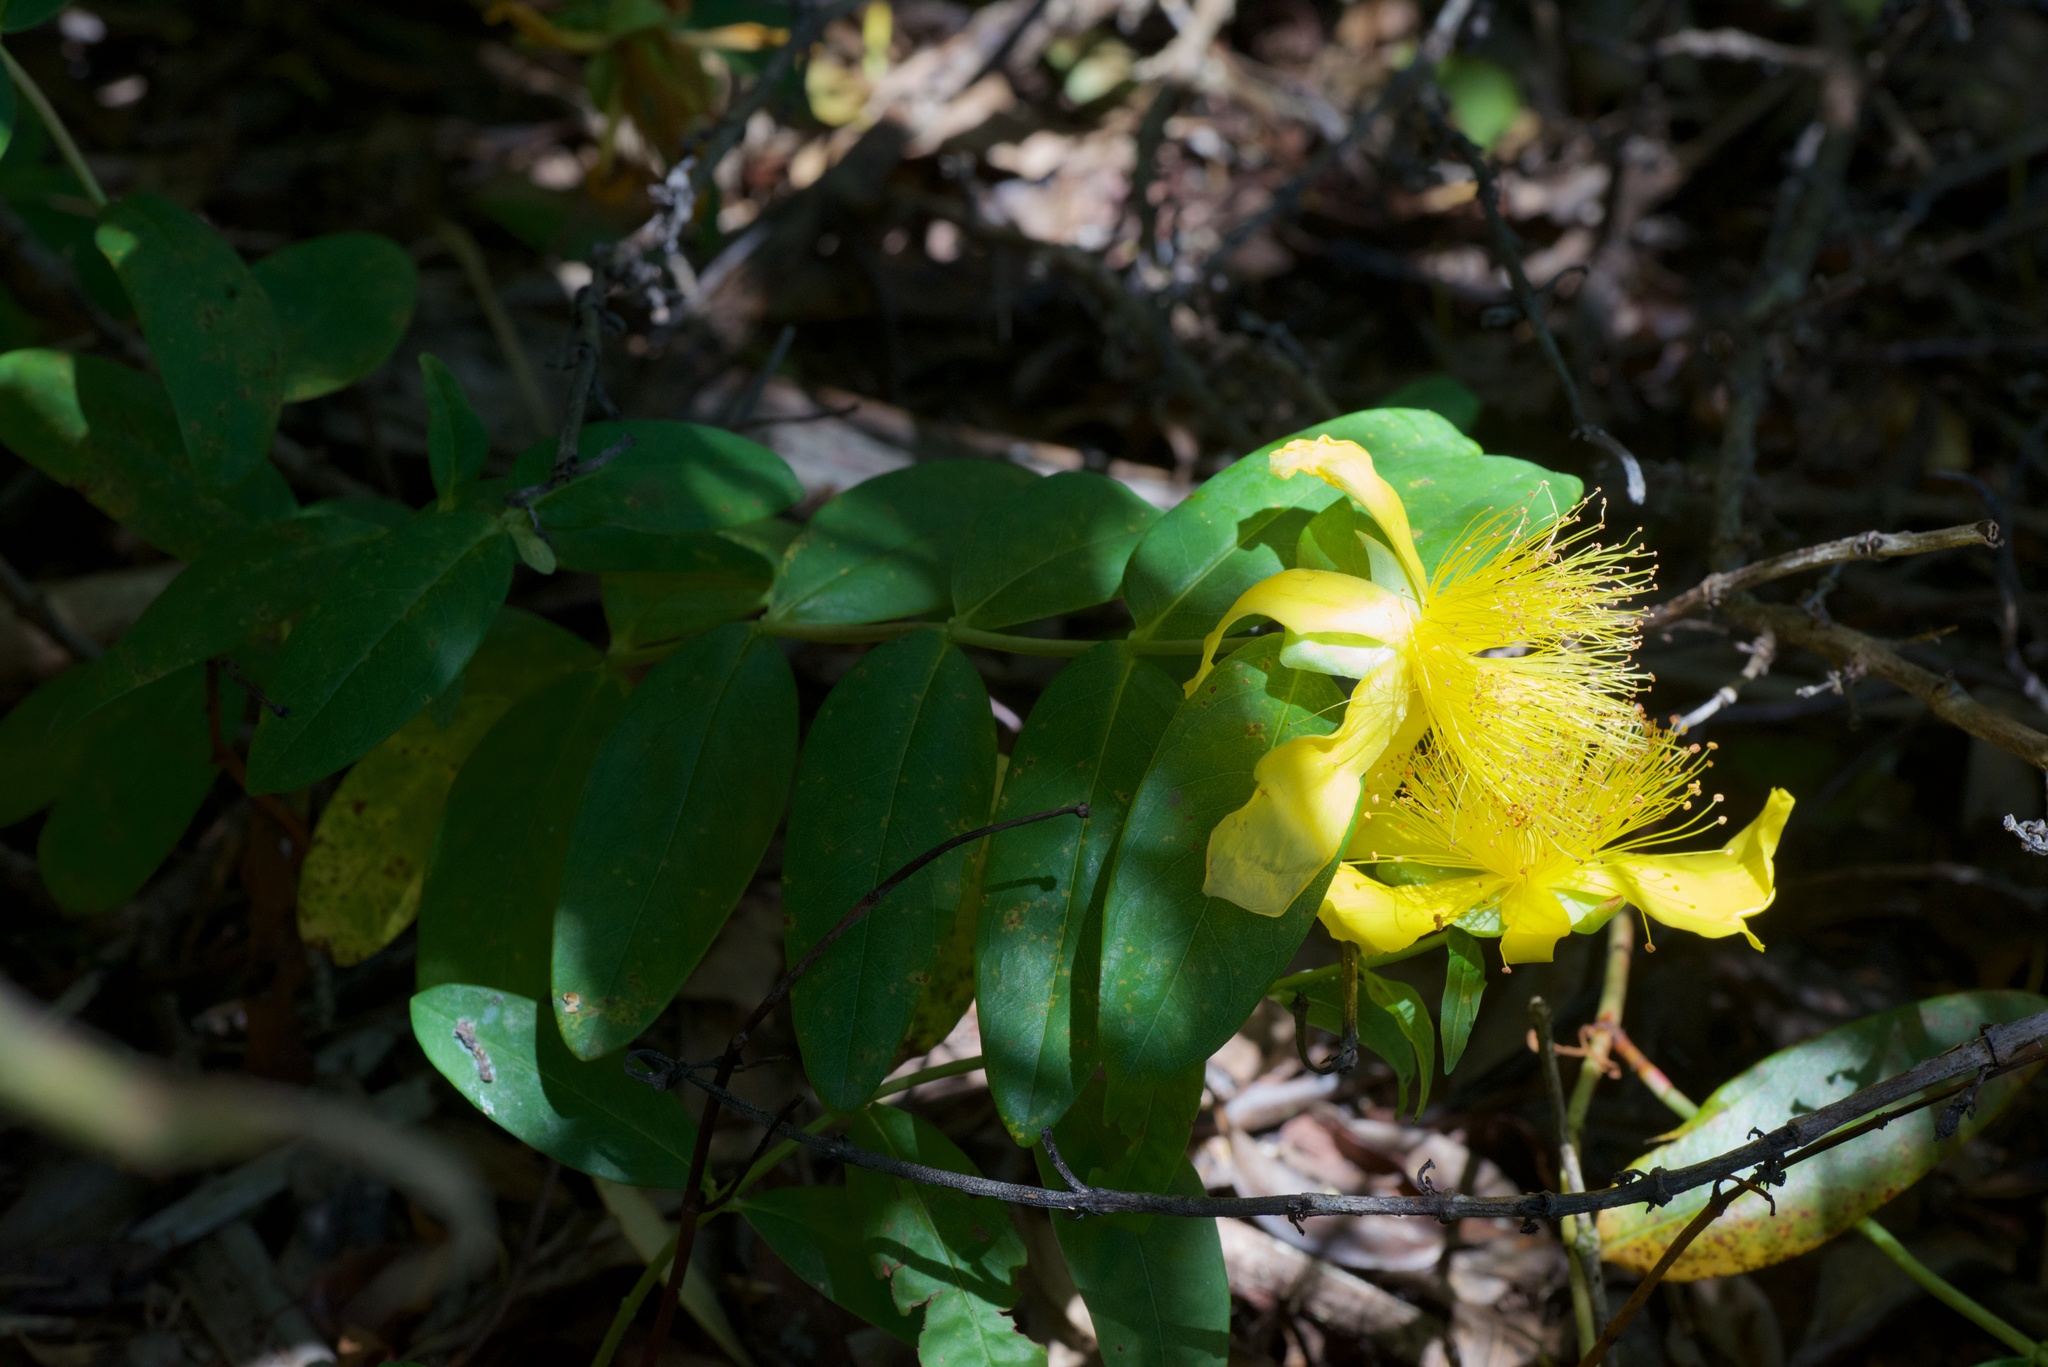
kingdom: Plantae
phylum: Tracheophyta
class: Magnoliopsida
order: Malpighiales
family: Hypericaceae
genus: Hypericum
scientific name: Hypericum calycinum
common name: Rose-of-sharon
